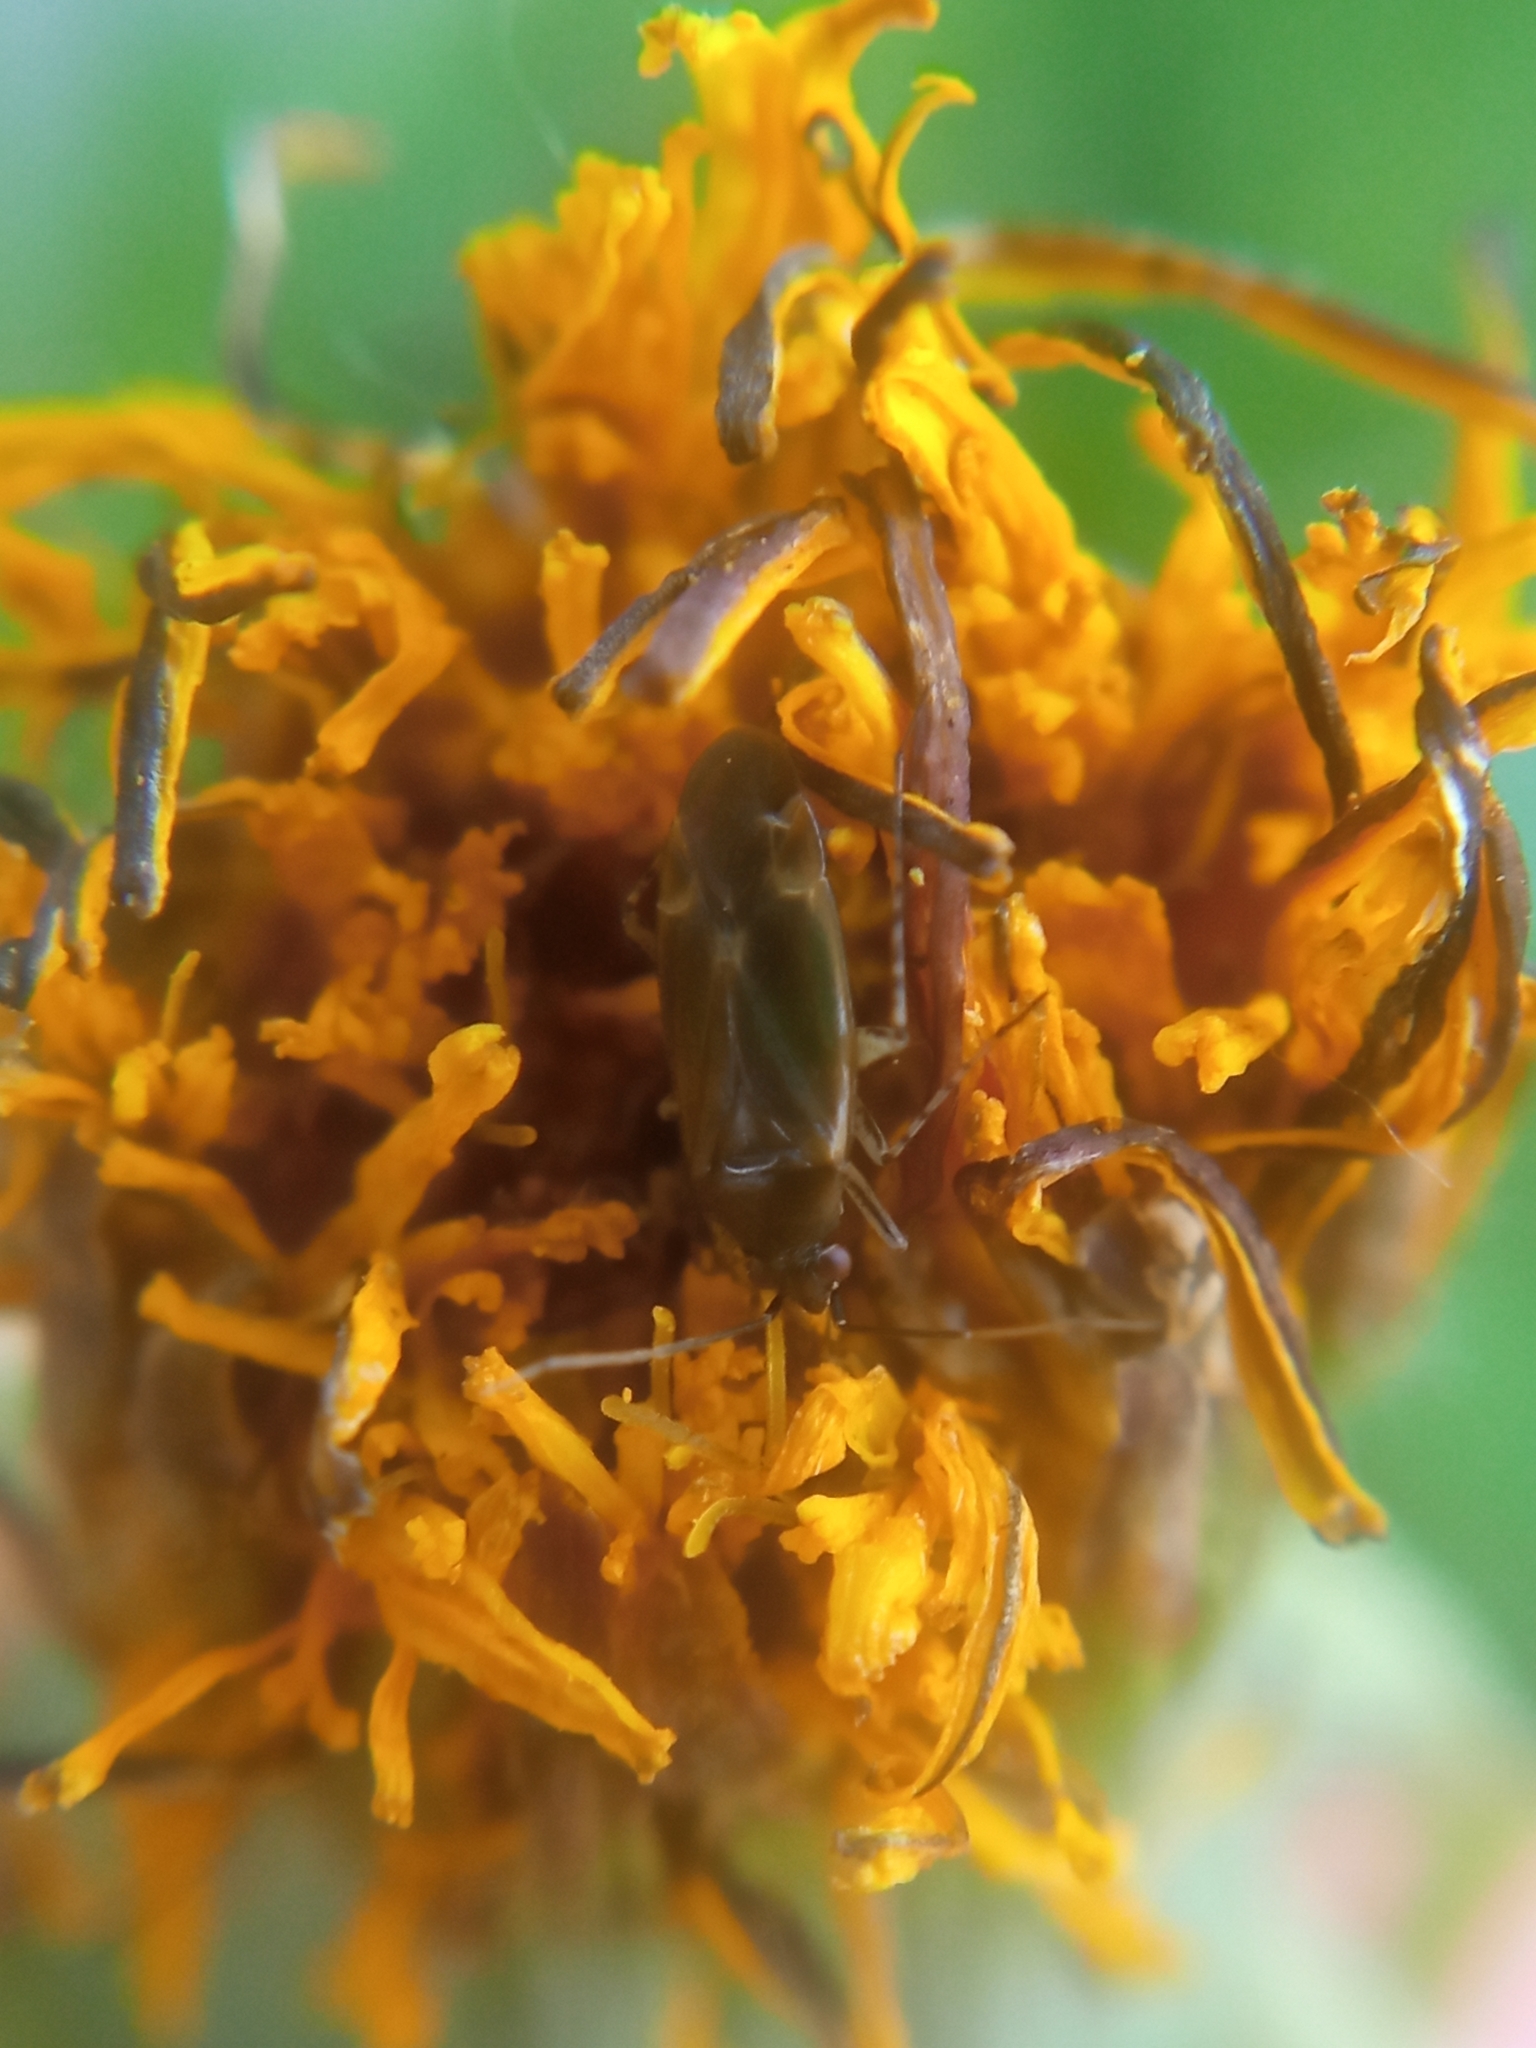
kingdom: Animalia
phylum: Arthropoda
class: Insecta
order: Hemiptera
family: Miridae
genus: Plagiognathus
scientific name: Plagiognathus arbustorum
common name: Plant bug
